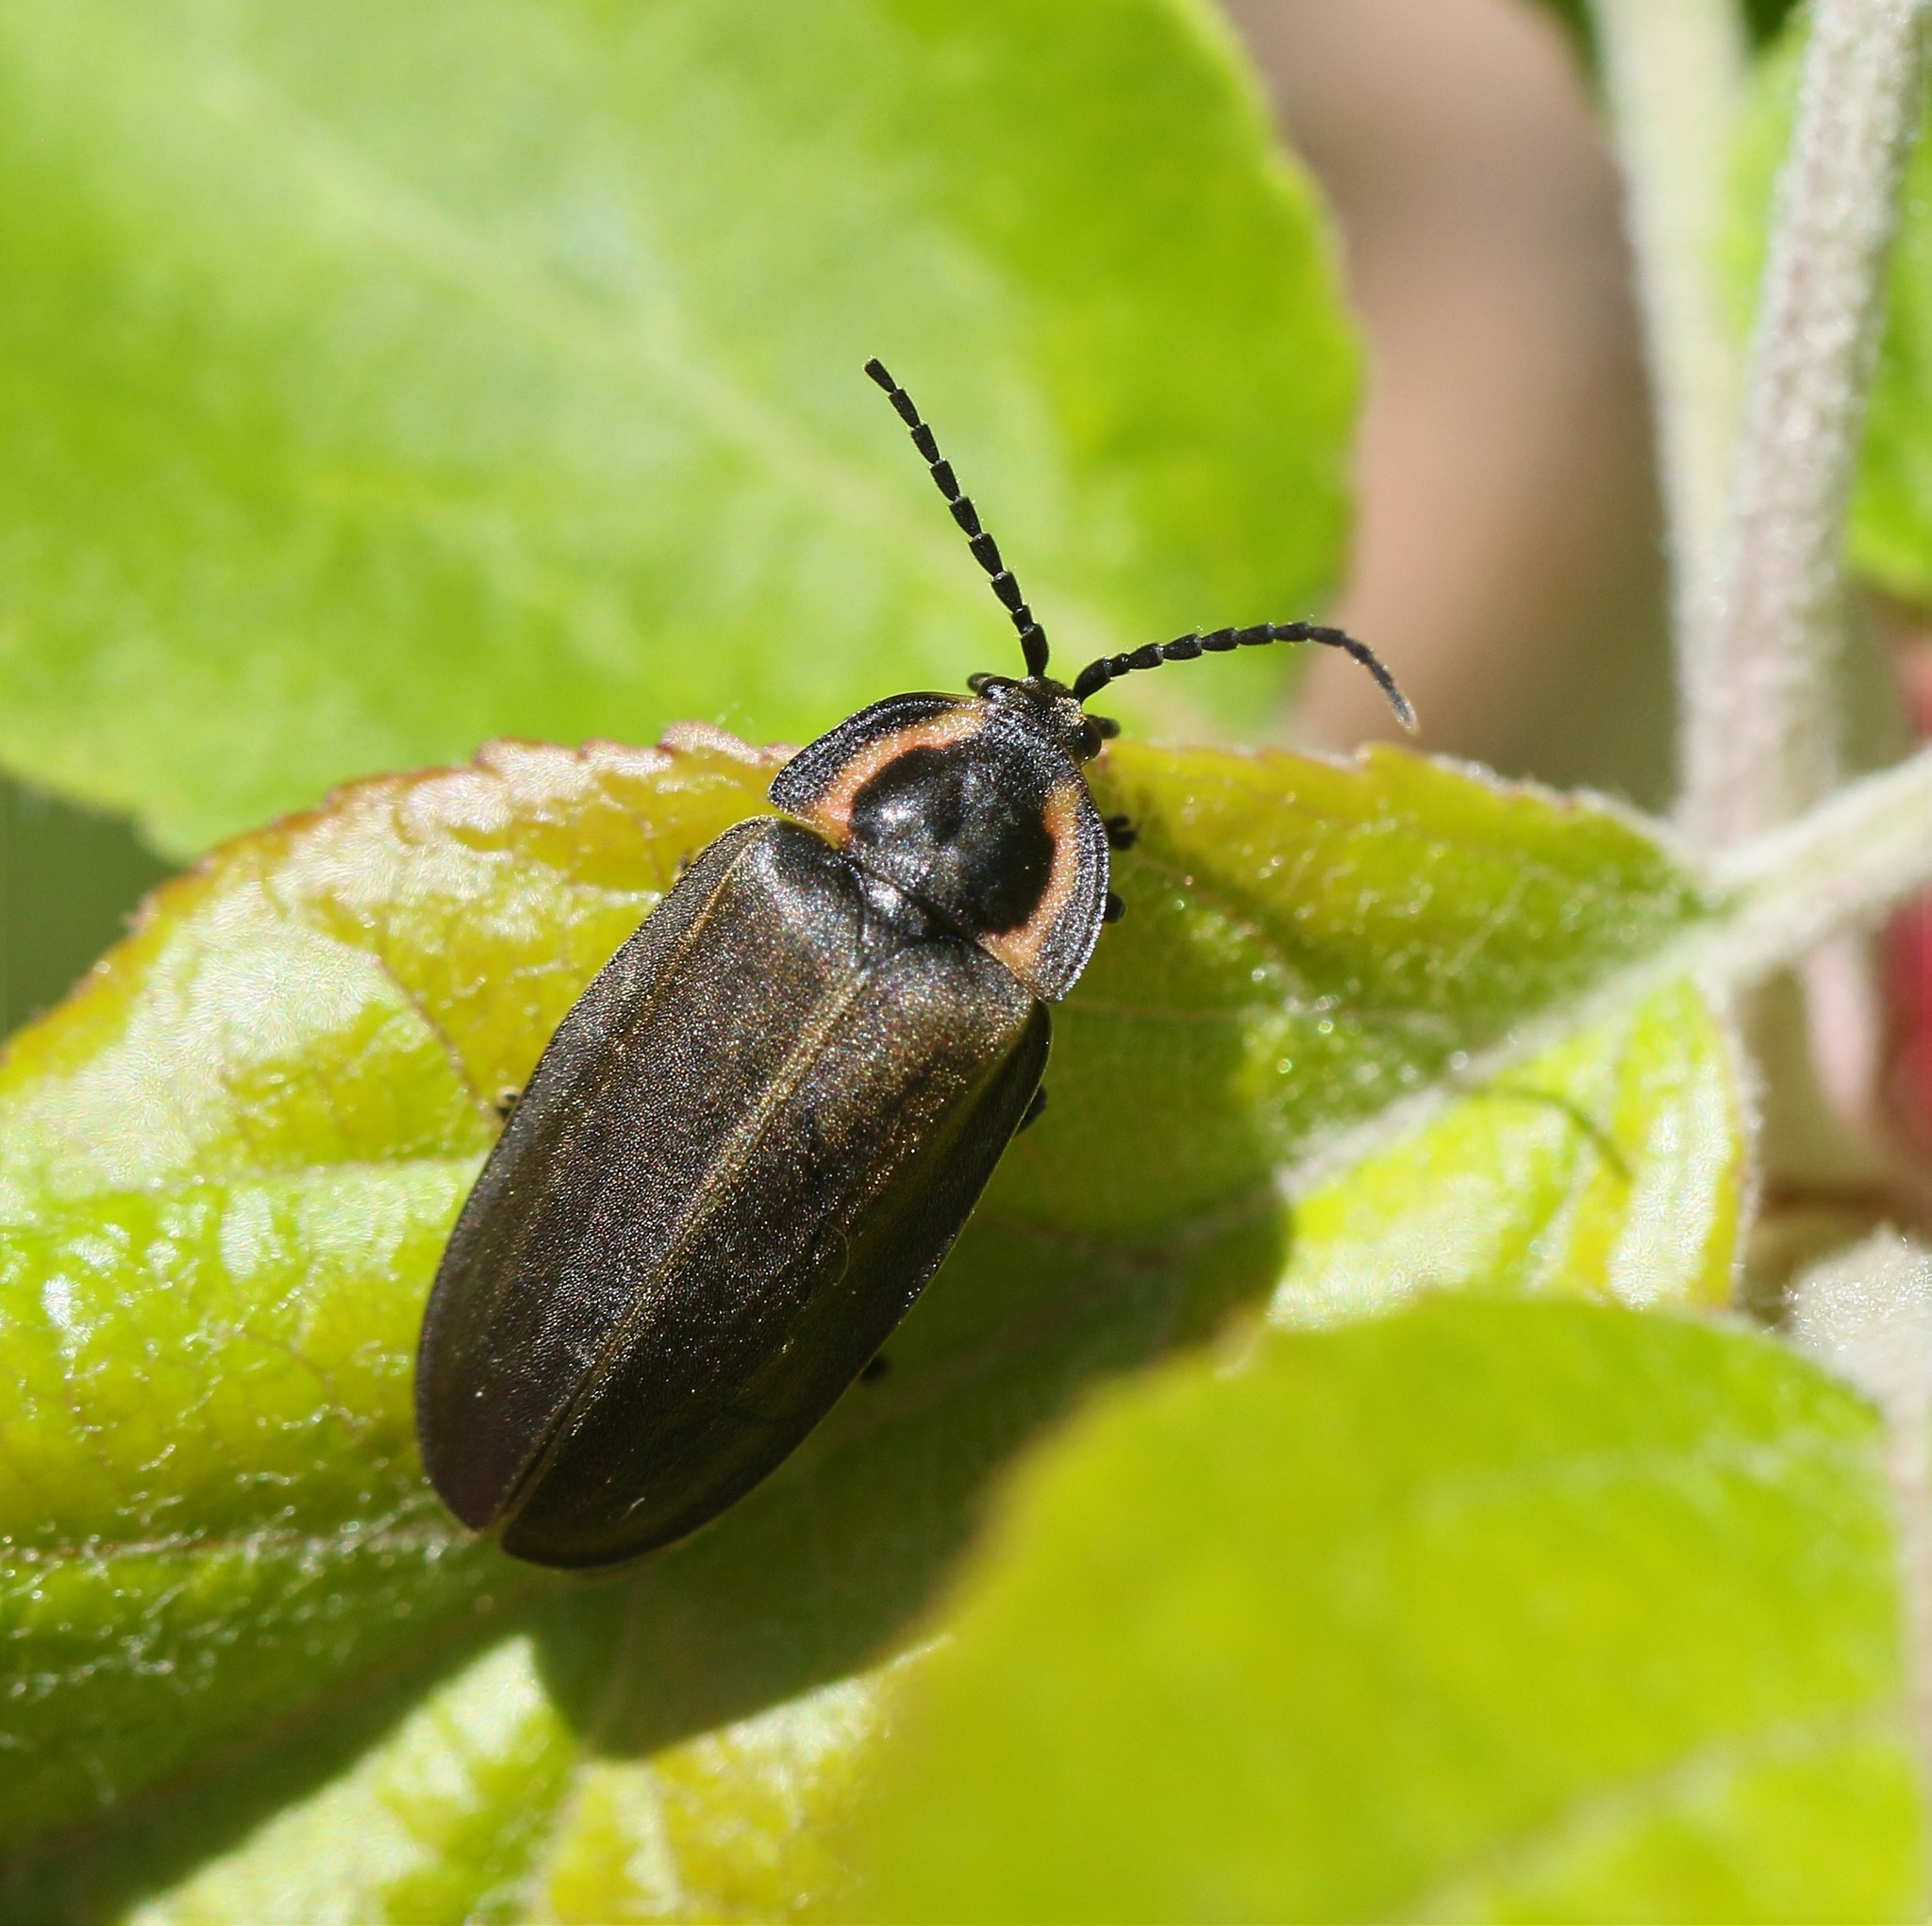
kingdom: Animalia
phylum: Arthropoda
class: Insecta
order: Coleoptera
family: Lampyridae
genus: Photinus
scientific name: Photinus corrusca
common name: Winter firefly
